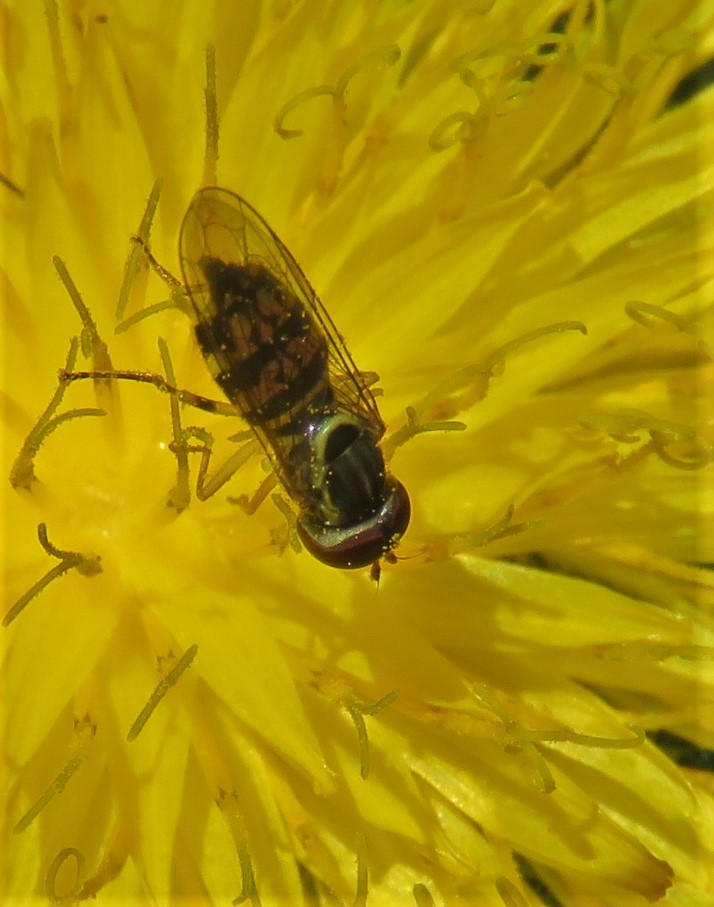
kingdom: Animalia
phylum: Arthropoda
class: Insecta
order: Diptera
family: Syrphidae
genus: Toxomerus
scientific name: Toxomerus geminatus
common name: Eastern calligrapher
